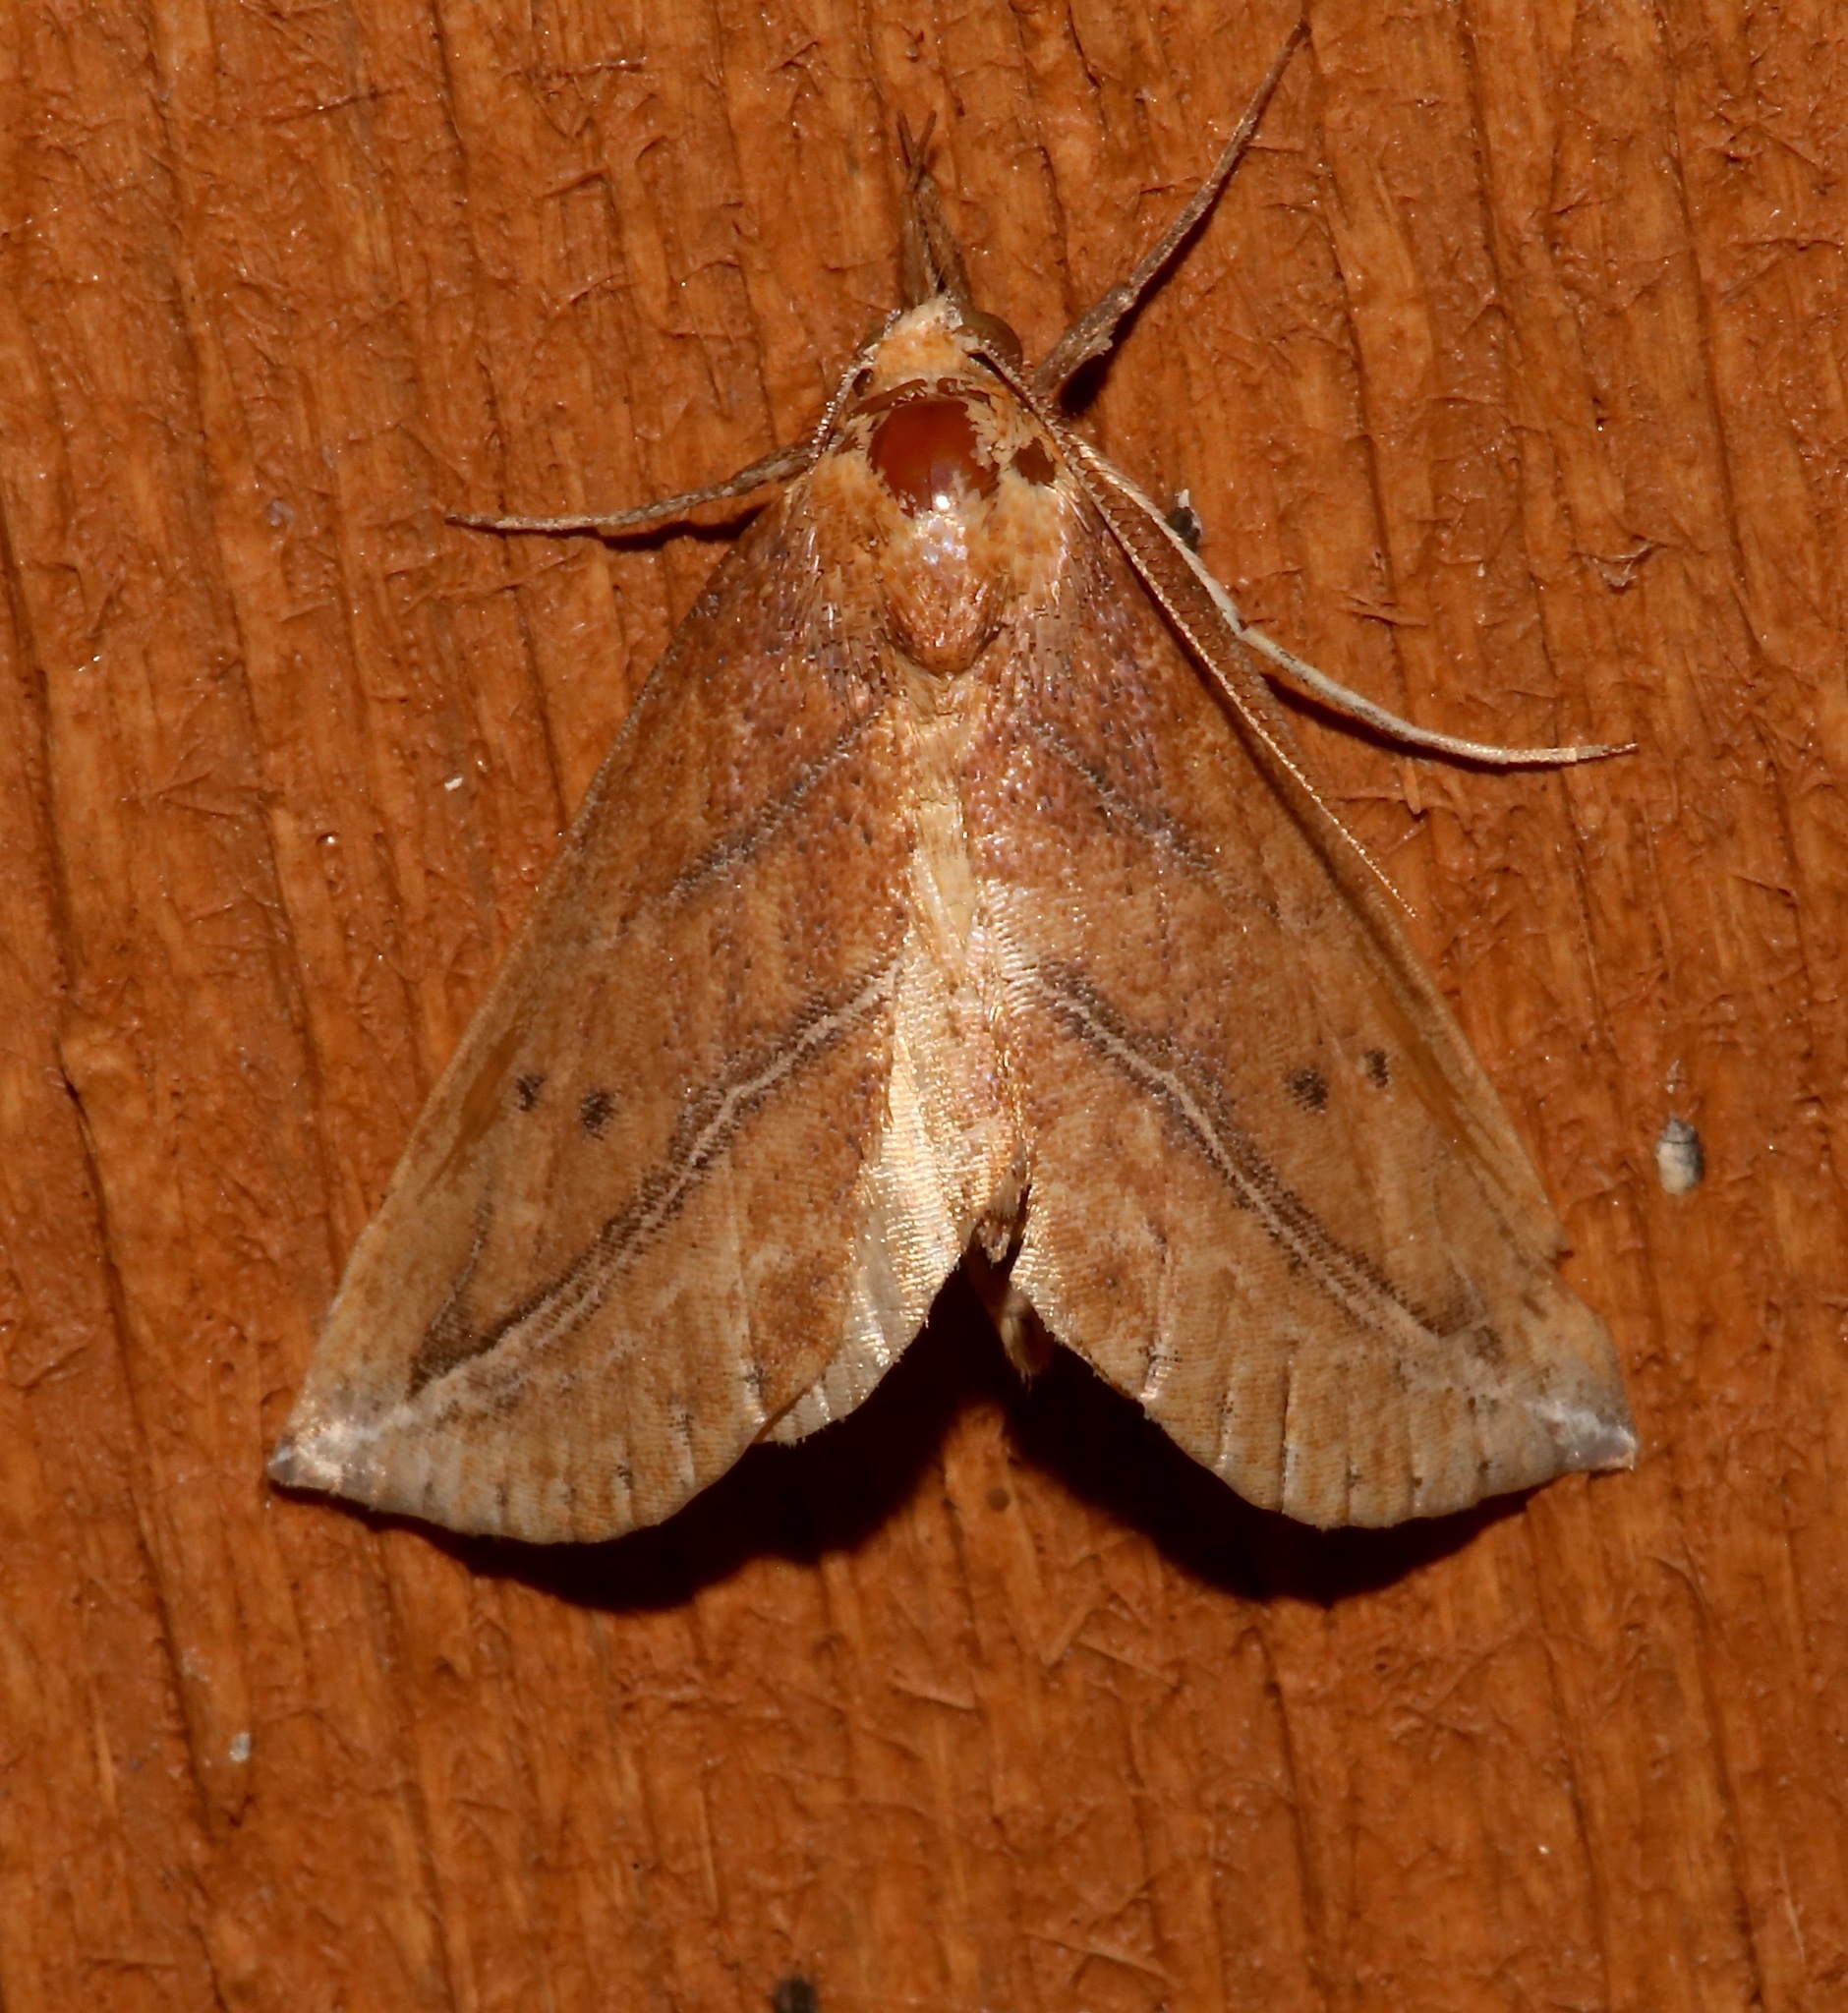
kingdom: Animalia
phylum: Arthropoda
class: Insecta
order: Lepidoptera
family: Erebidae
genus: Phyprosopus
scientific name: Phyprosopus callitrichoides
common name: Curved-lined owlet
